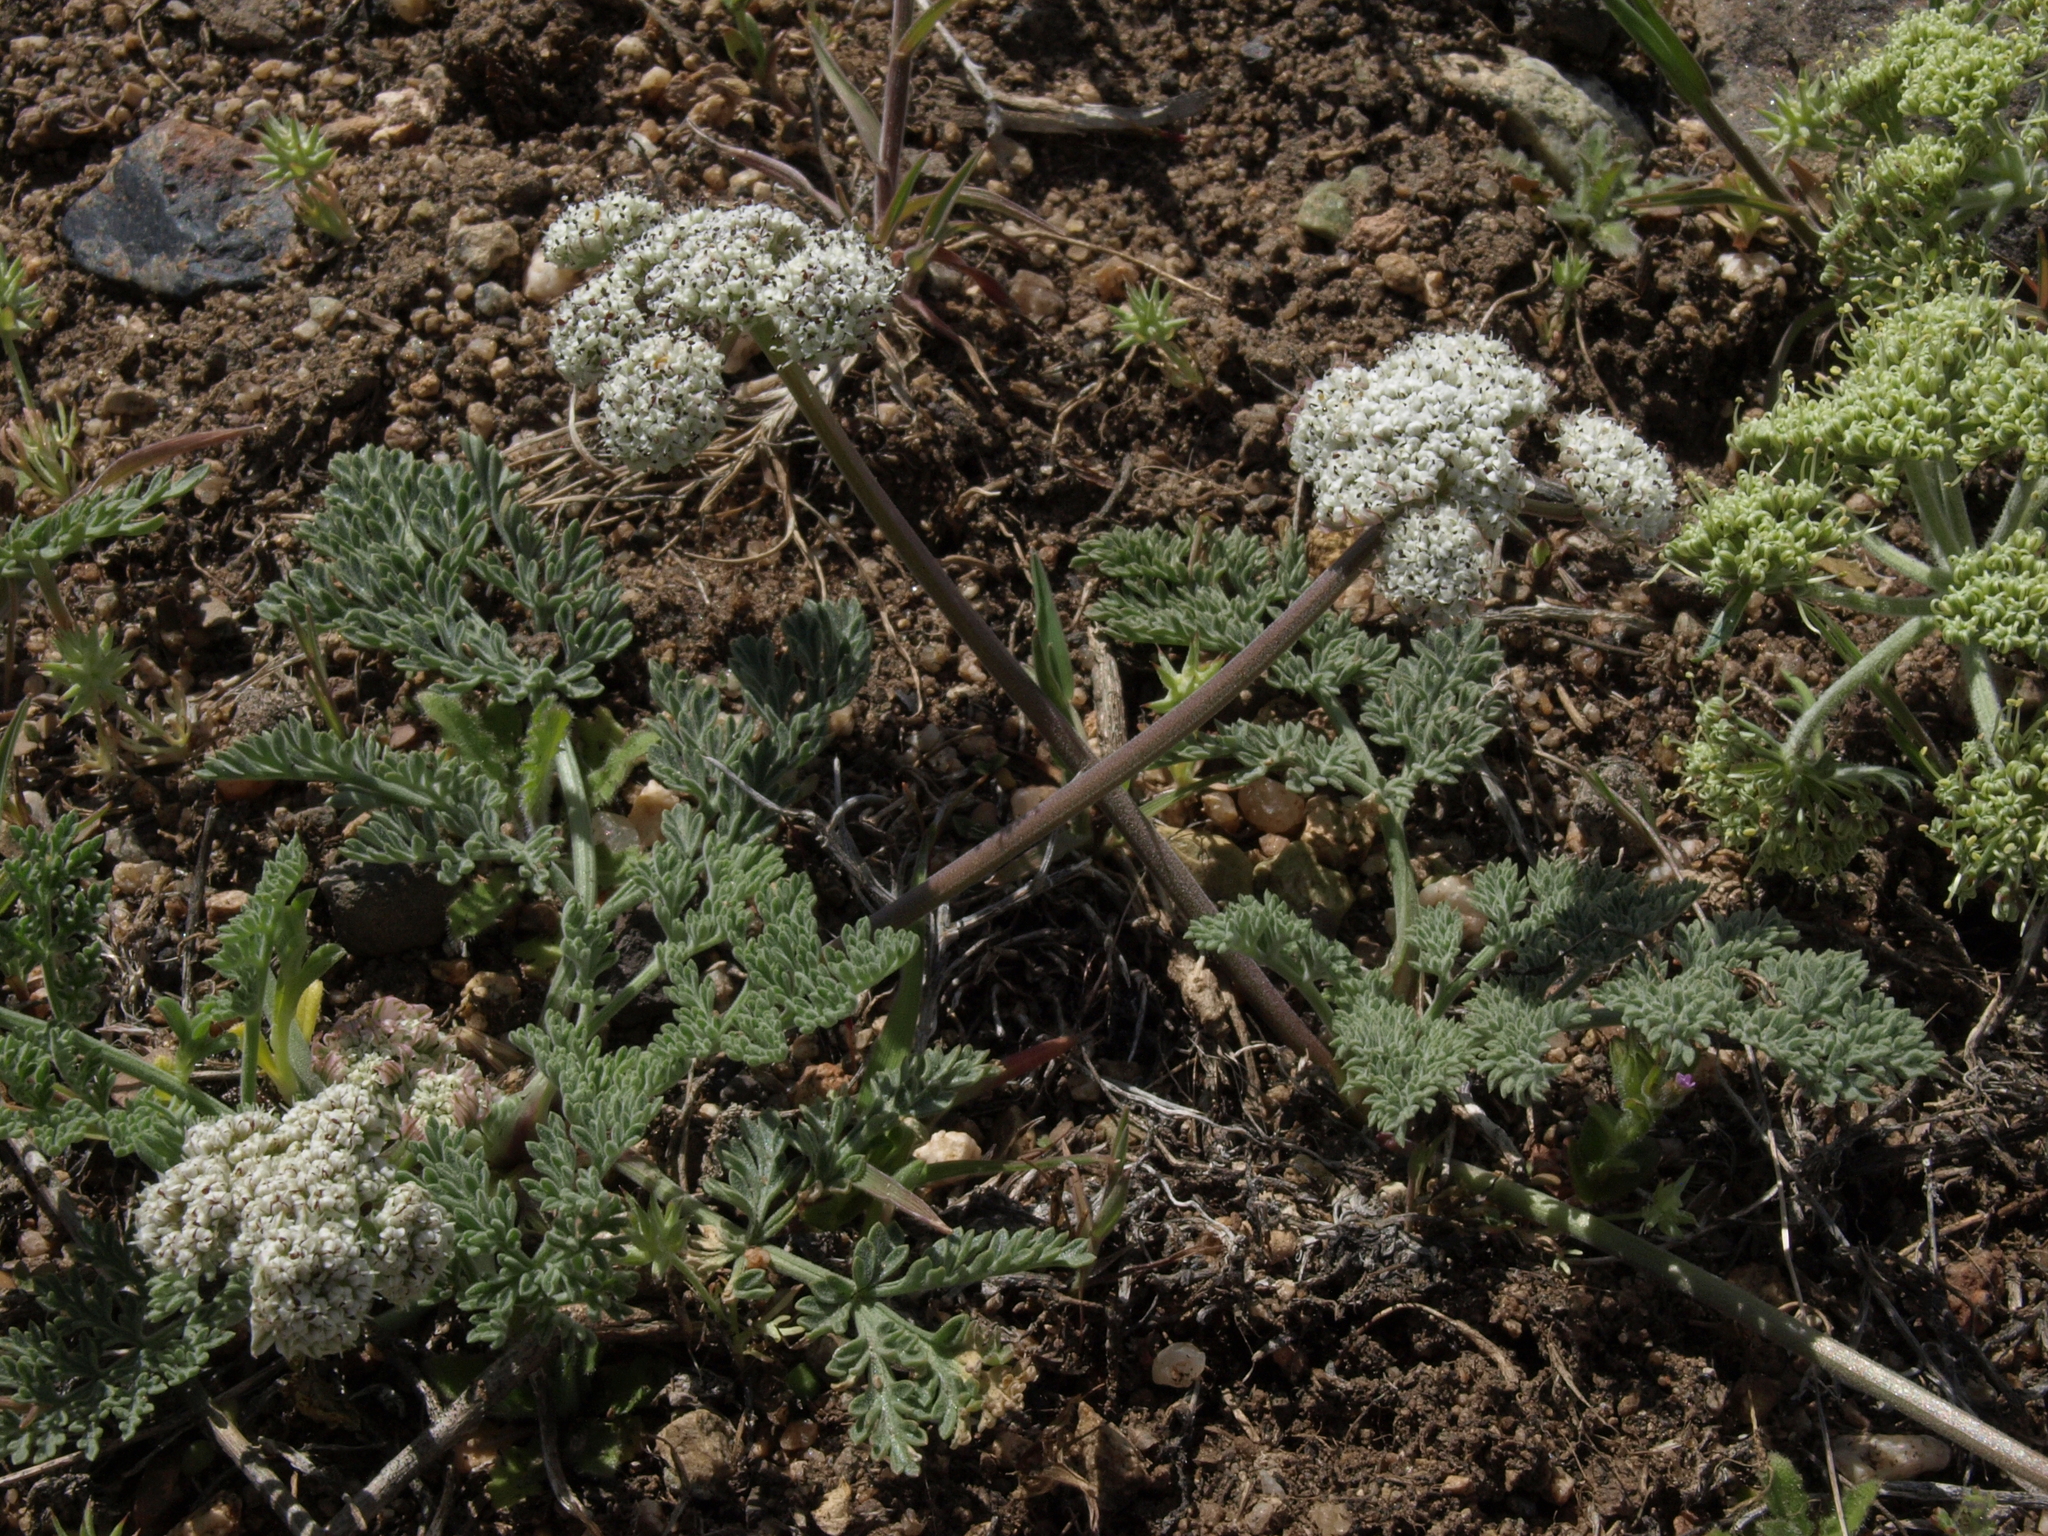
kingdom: Plantae
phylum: Tracheophyta
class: Magnoliopsida
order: Apiales
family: Apiaceae
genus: Lomatium
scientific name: Lomatium nevadense
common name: Nevada lomatium
